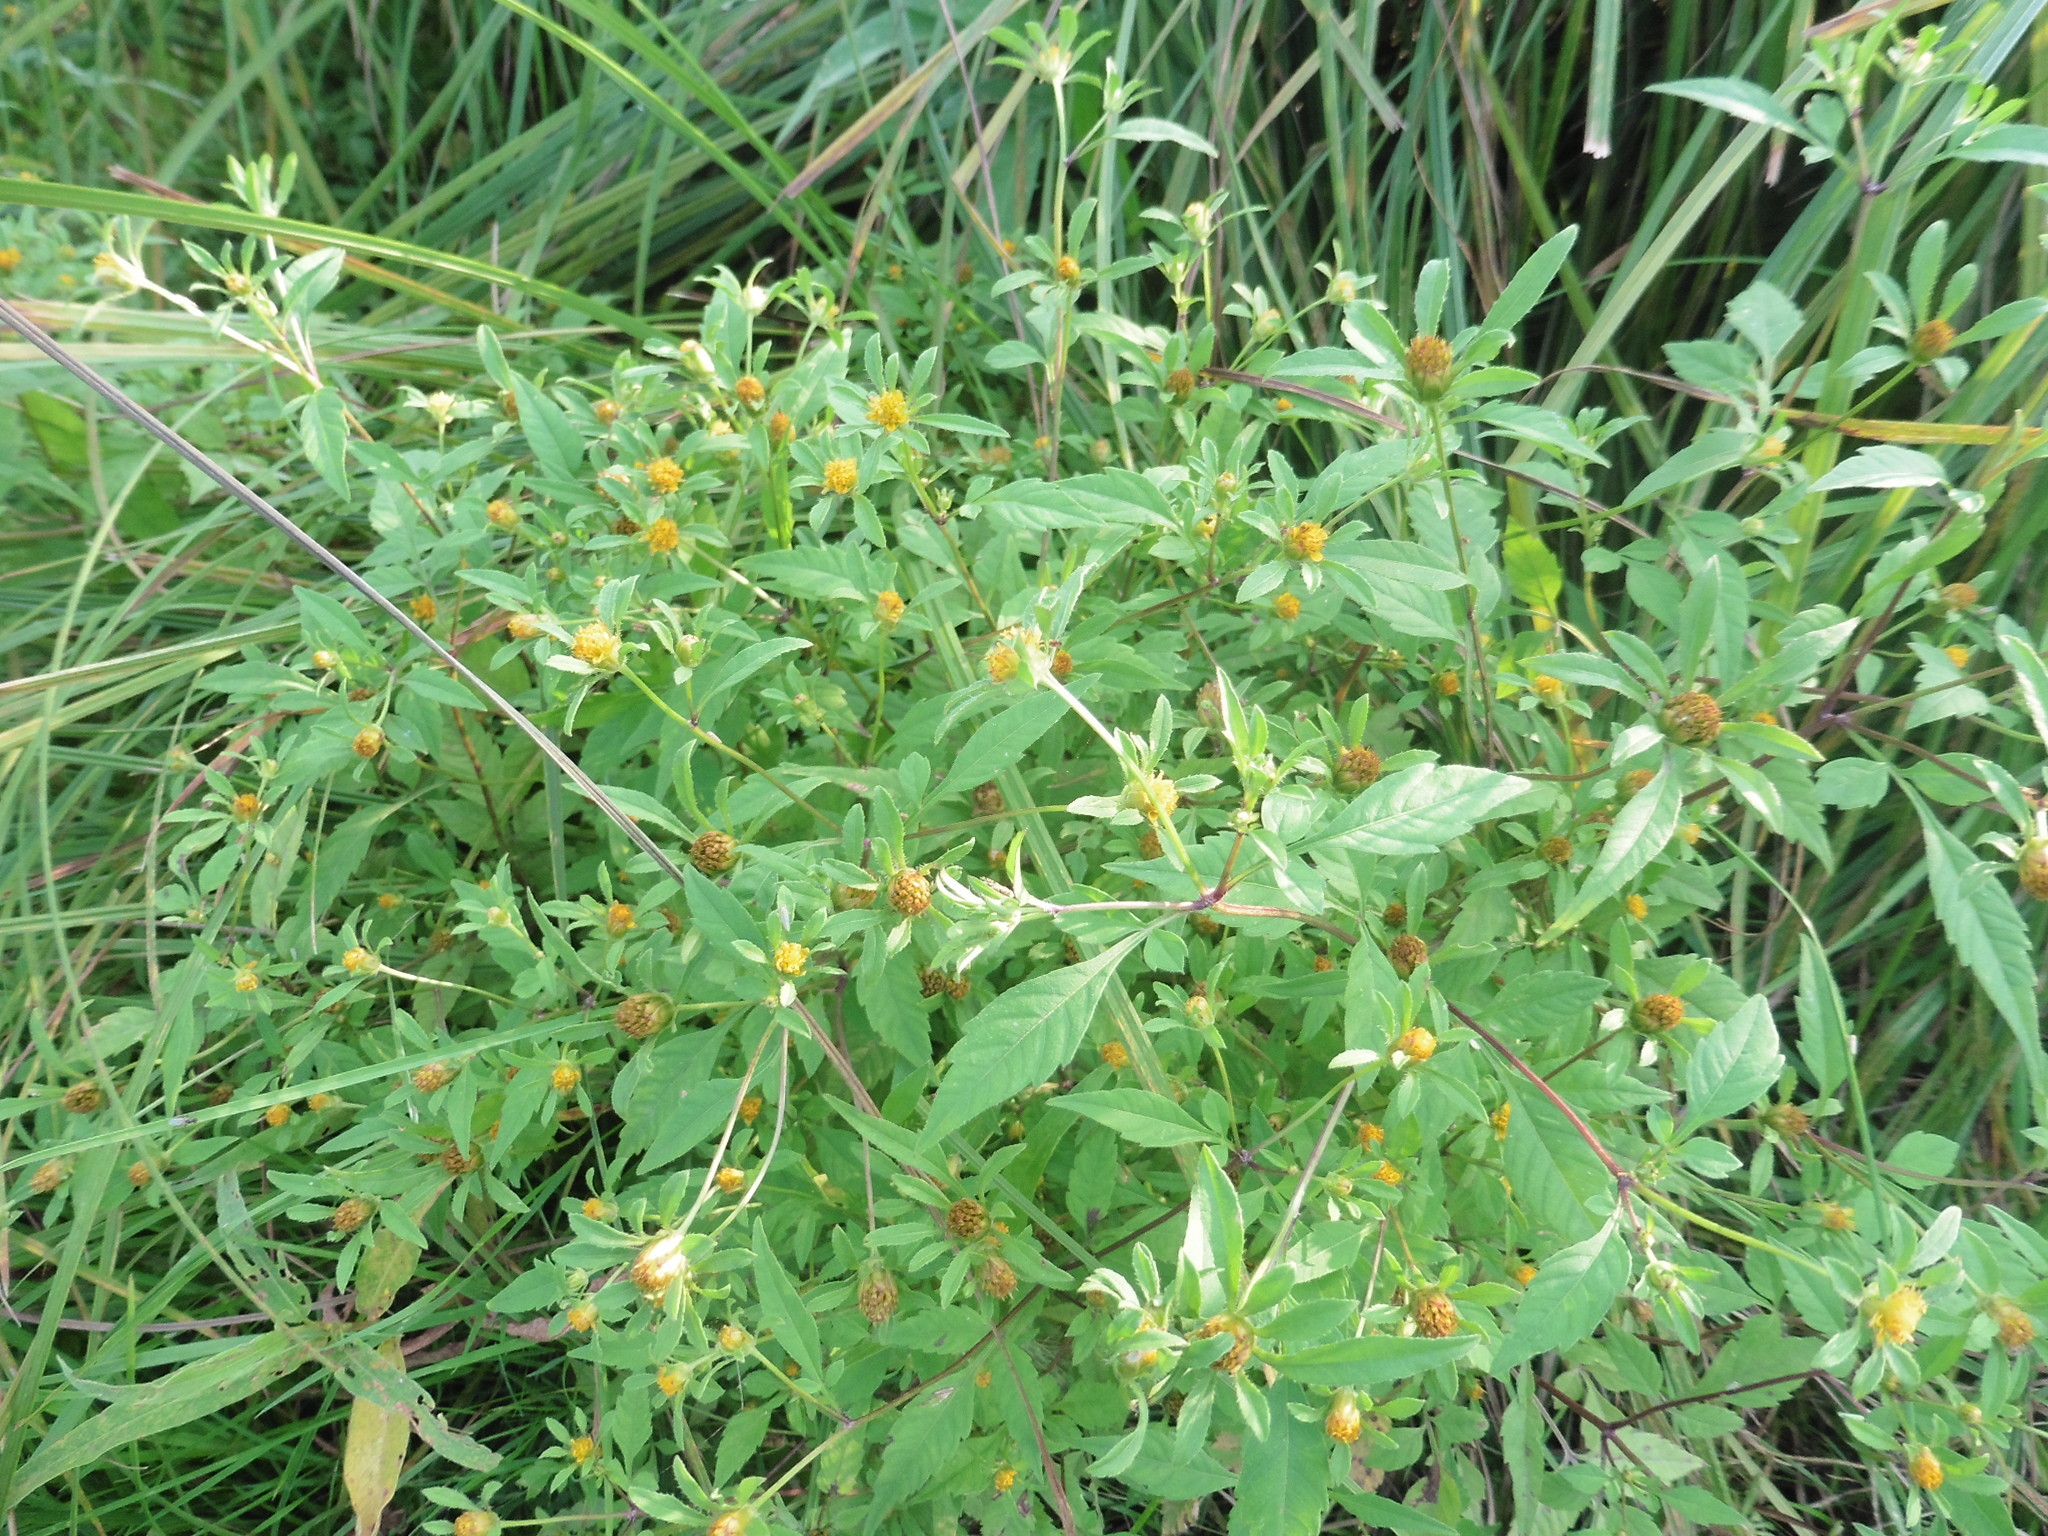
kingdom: Plantae
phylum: Tracheophyta
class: Magnoliopsida
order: Asterales
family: Asteraceae
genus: Bidens
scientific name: Bidens frondosa
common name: Beggarticks
